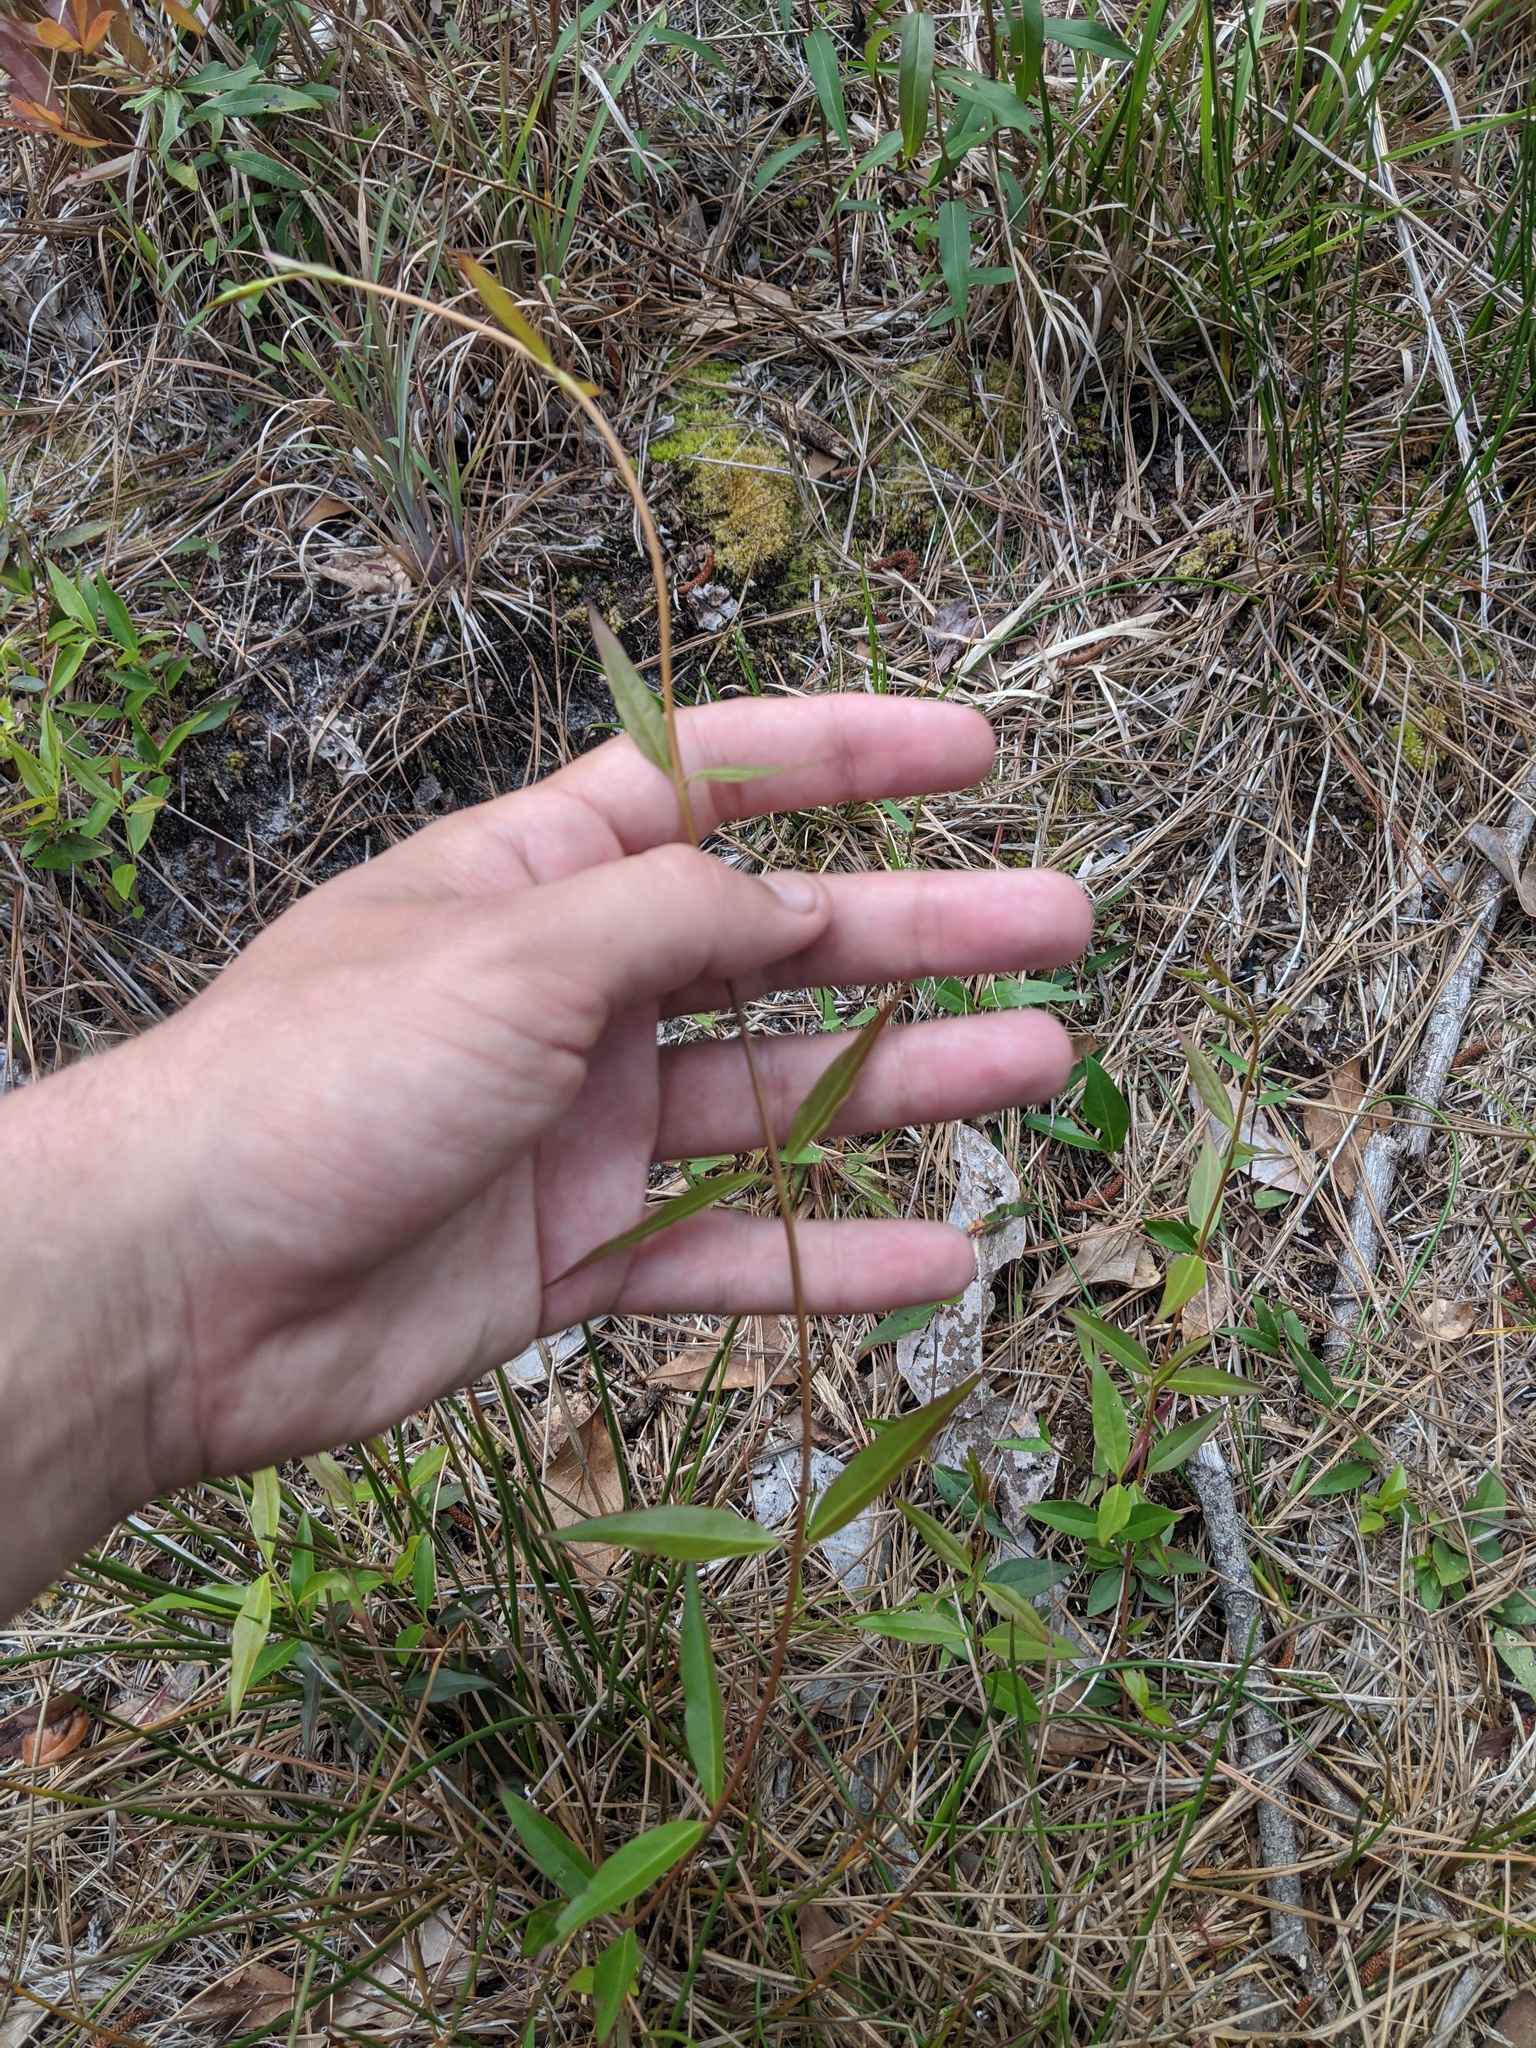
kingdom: Plantae
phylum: Tracheophyta
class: Magnoliopsida
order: Gentianales
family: Gelsemiaceae
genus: Gelsemium
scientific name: Gelsemium sempervirens
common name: Carolina-jasmine
